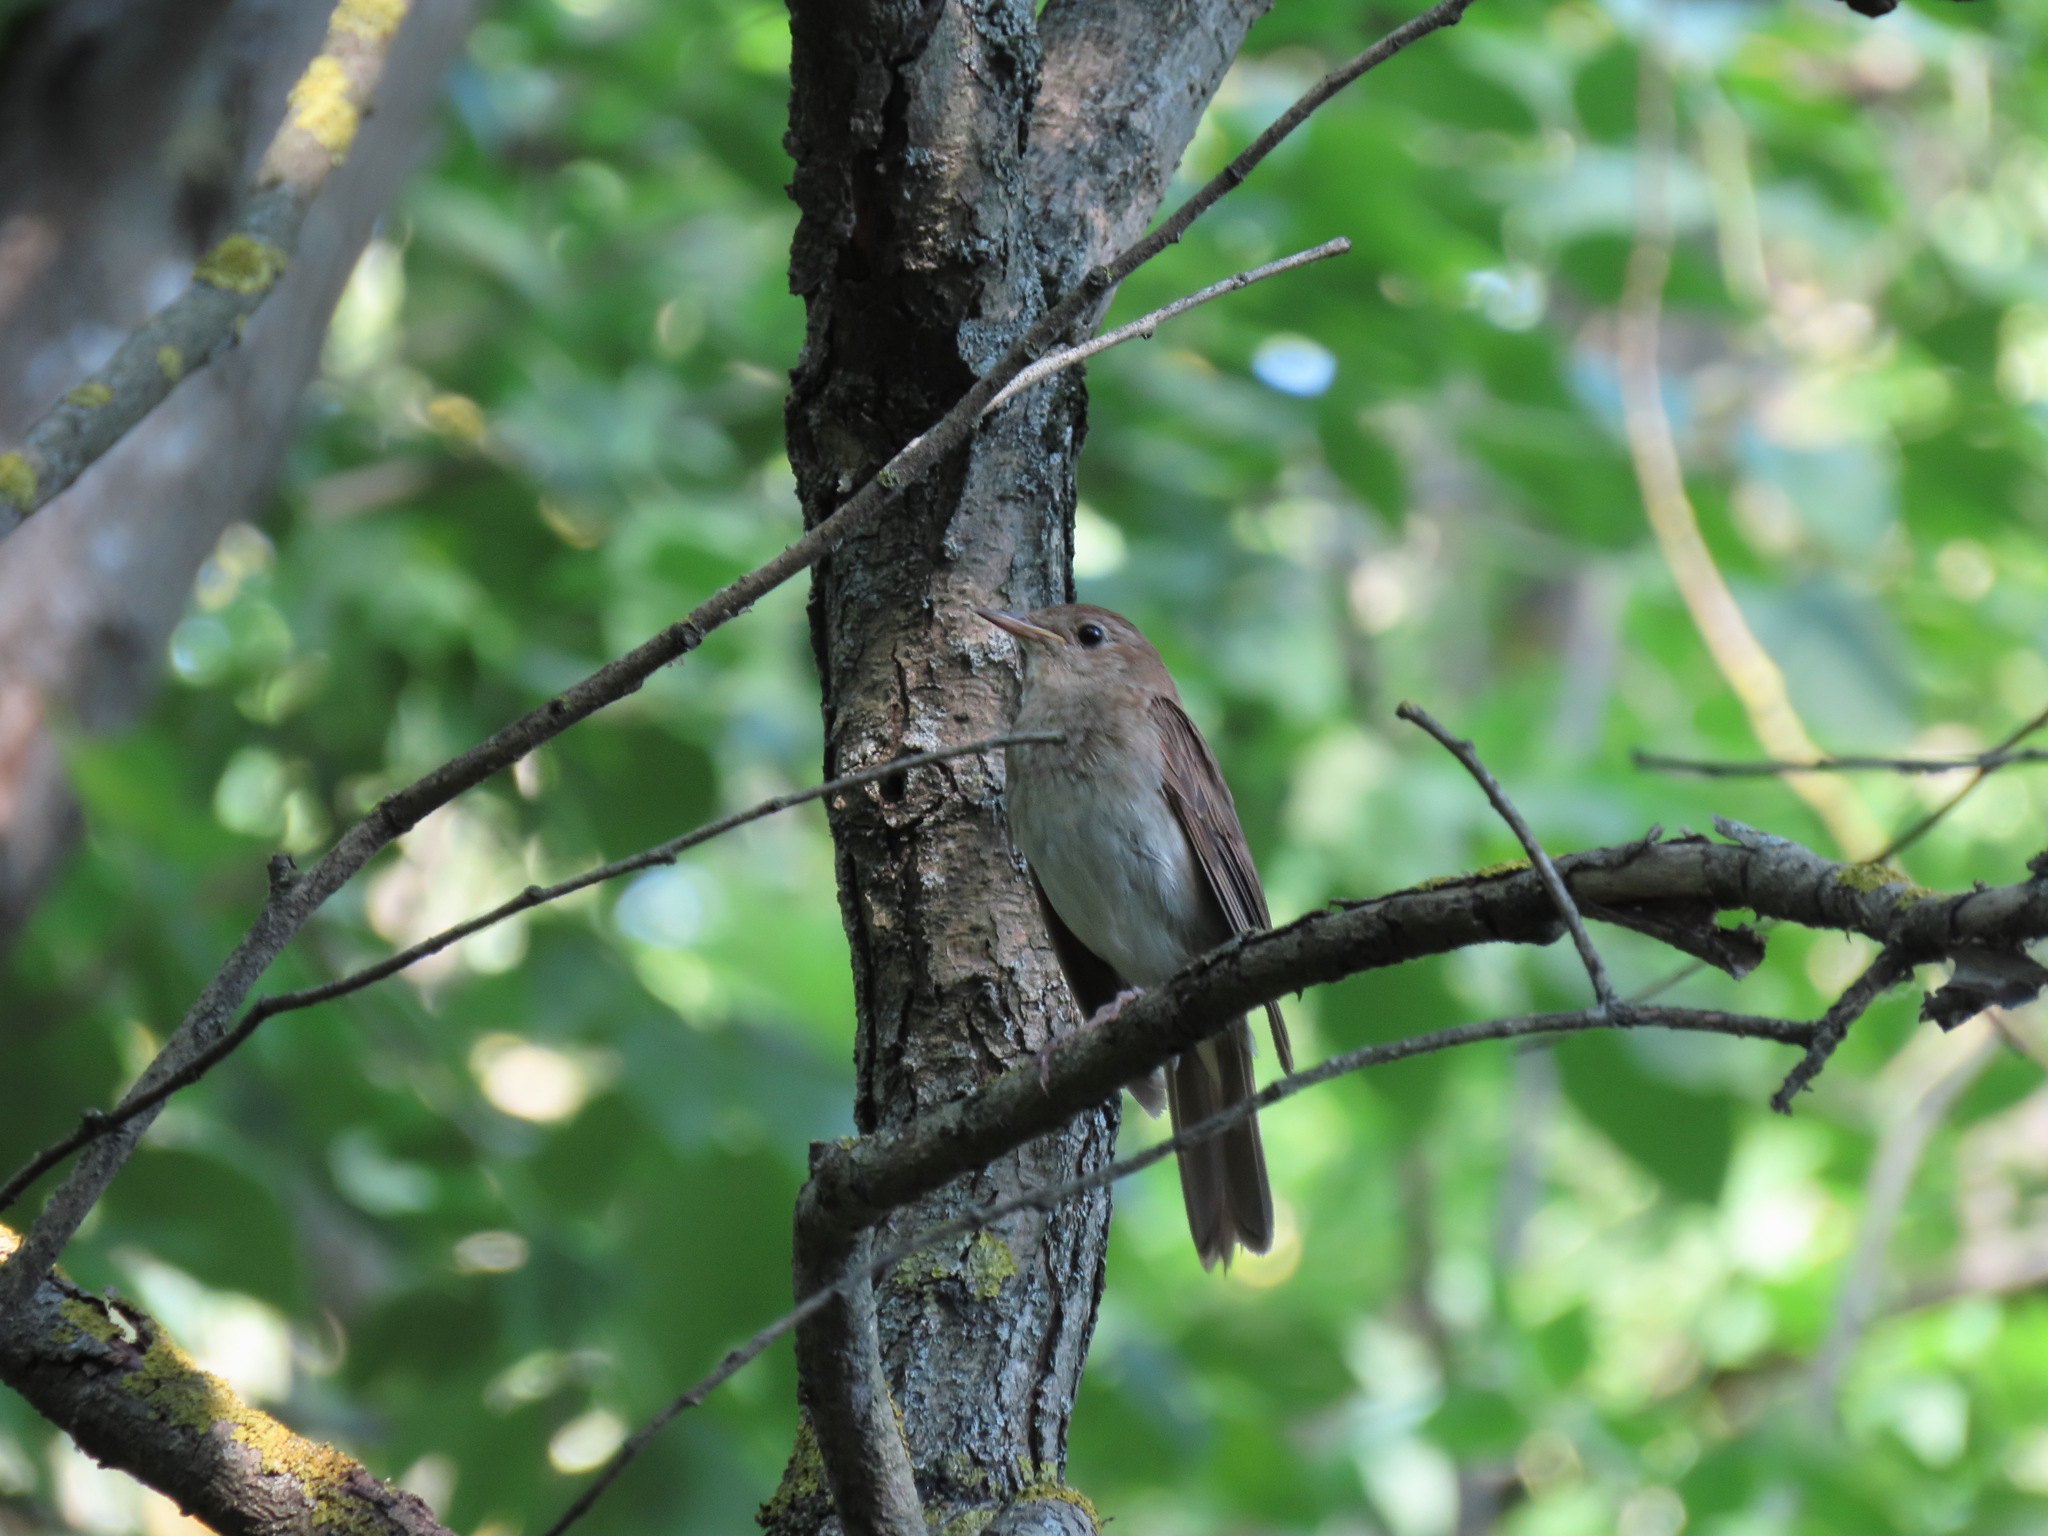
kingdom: Animalia
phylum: Chordata
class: Aves
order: Passeriformes
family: Muscicapidae
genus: Luscinia
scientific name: Luscinia luscinia
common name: Thrush nightingale
